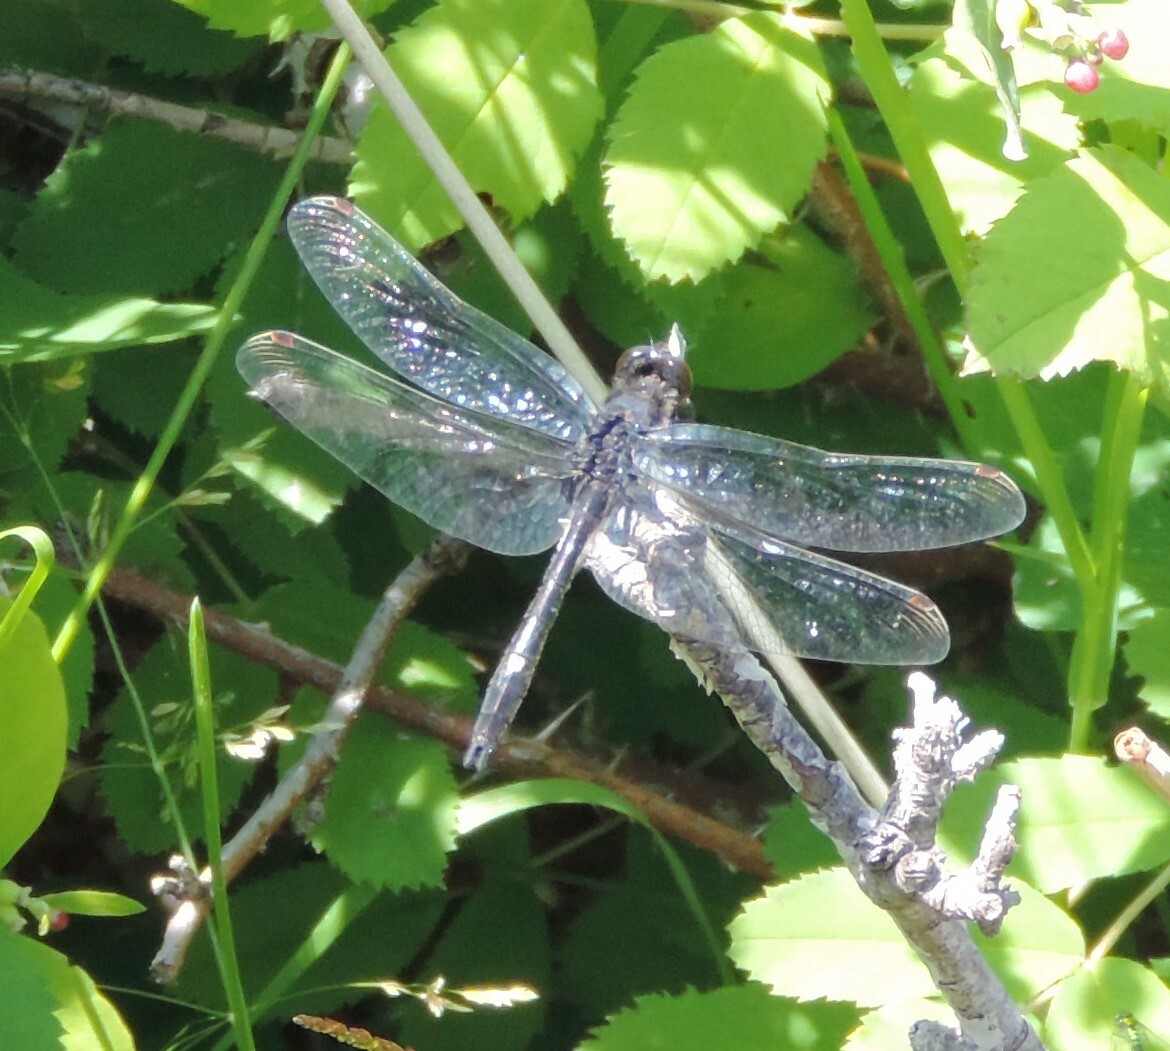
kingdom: Animalia
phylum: Arthropoda
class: Insecta
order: Odonata
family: Libellulidae
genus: Leucorrhinia
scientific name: Leucorrhinia intacta
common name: Dot-tailed whiteface
